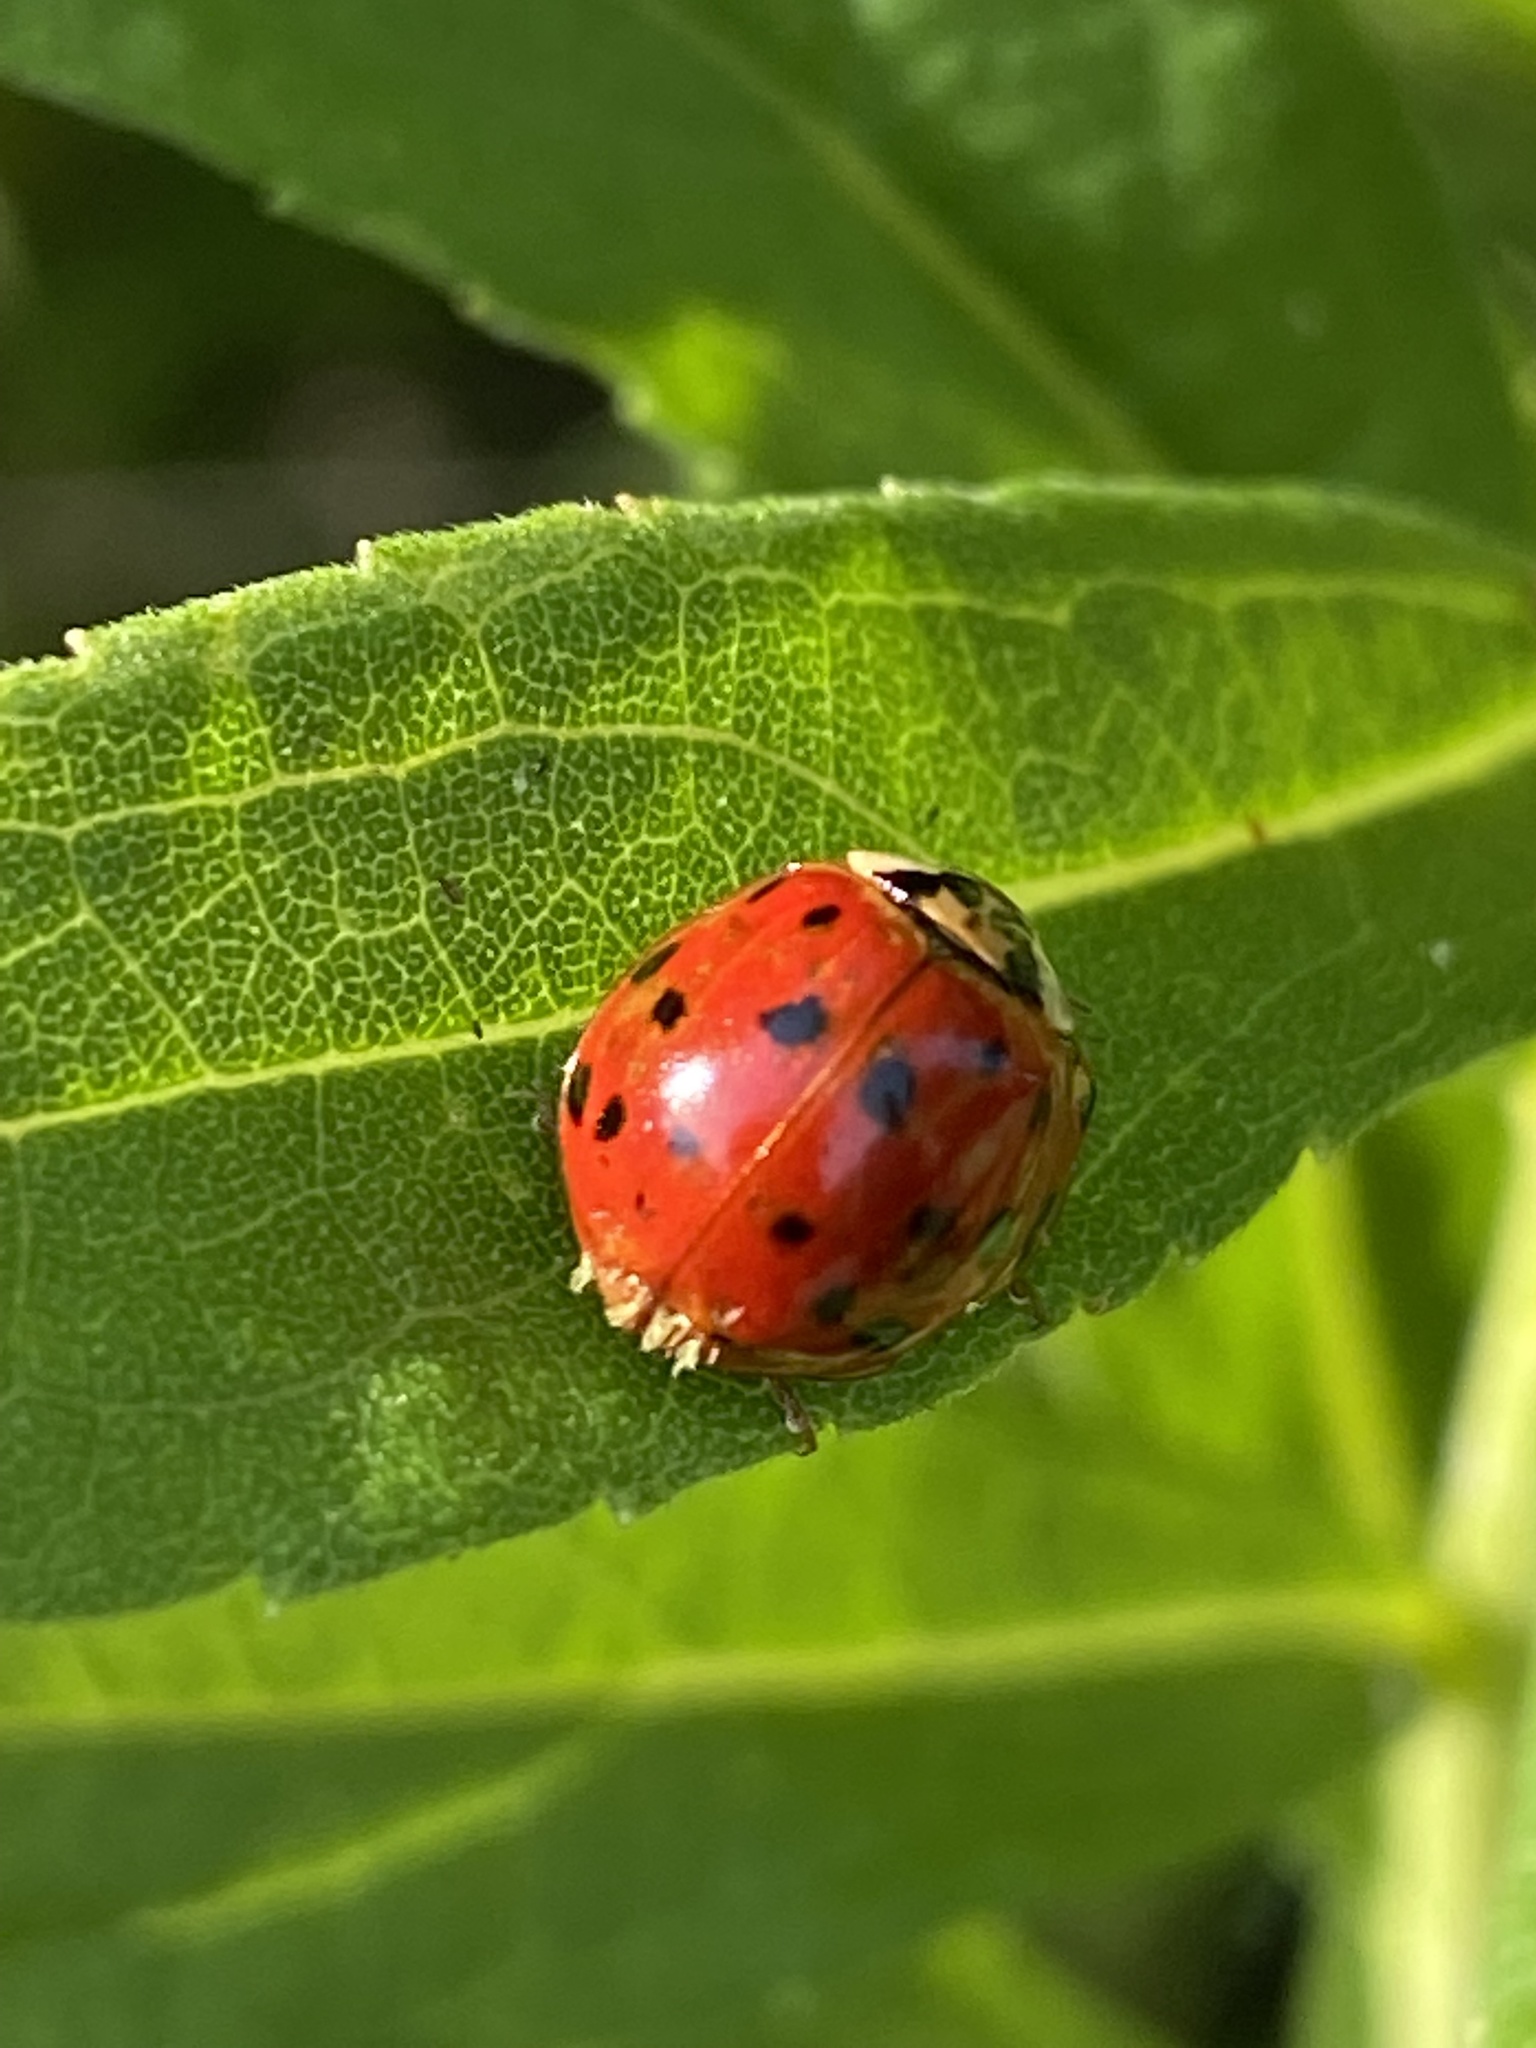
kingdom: Animalia
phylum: Arthropoda
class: Insecta
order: Coleoptera
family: Coccinellidae
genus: Harmonia
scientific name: Harmonia axyridis
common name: Harlequin ladybird
